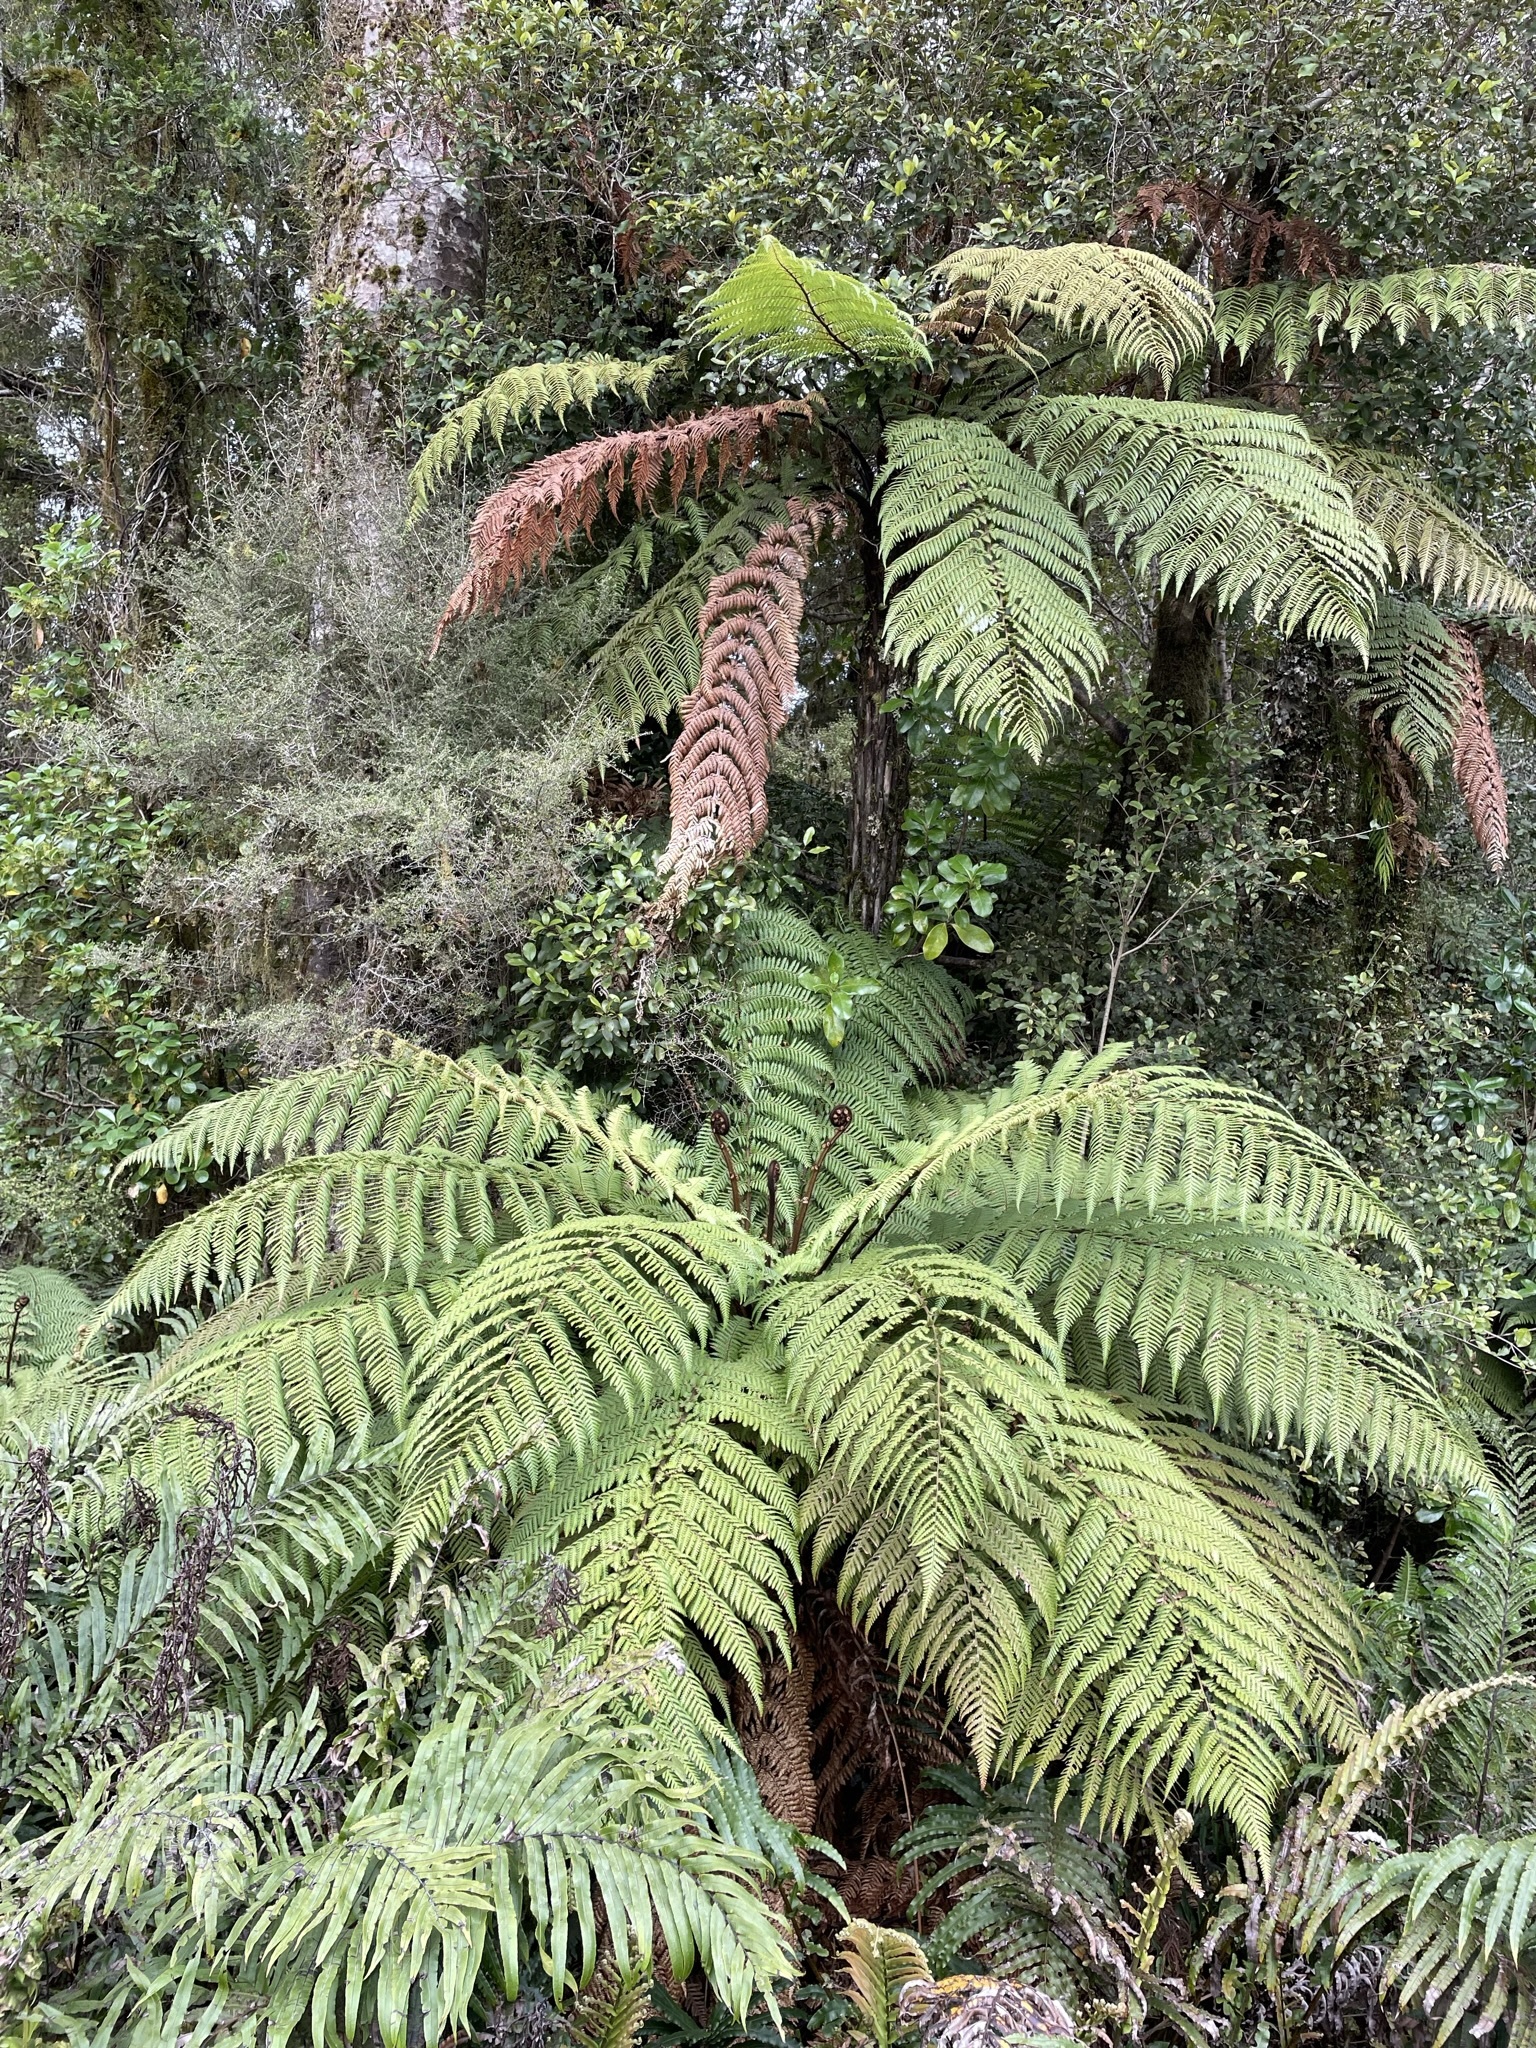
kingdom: Plantae
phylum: Tracheophyta
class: Polypodiopsida
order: Cyatheales
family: Dicksoniaceae
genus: Dicksonia
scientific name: Dicksonia squarrosa
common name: Hard treefern
